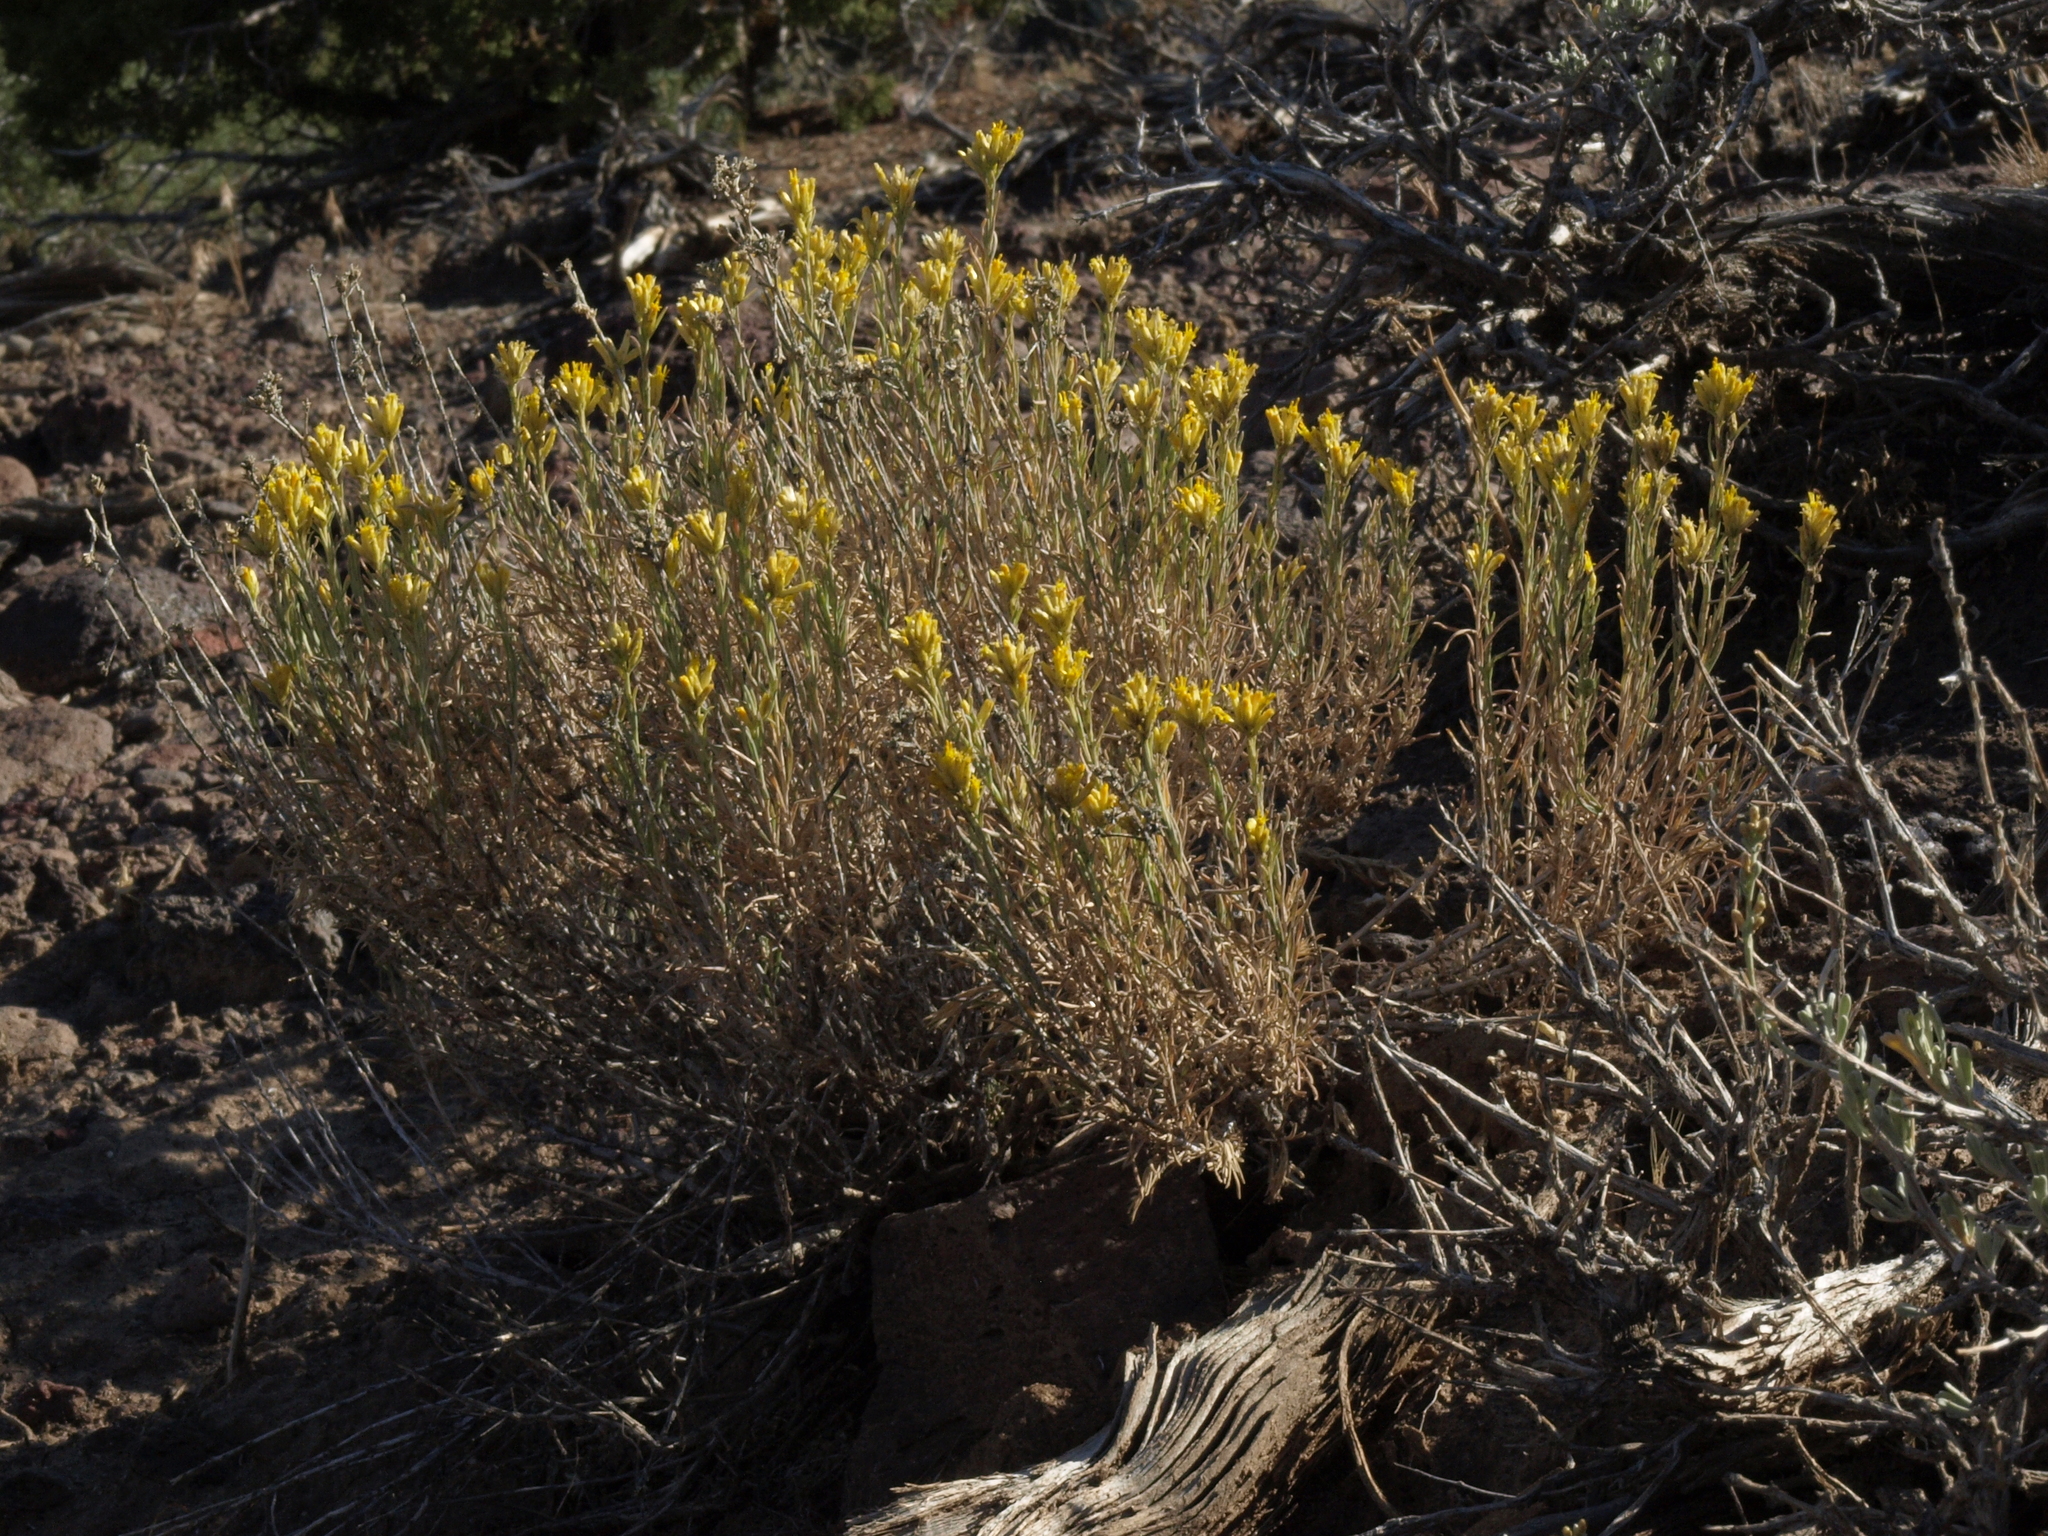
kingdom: Plantae
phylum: Tracheophyta
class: Magnoliopsida
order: Asterales
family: Asteraceae
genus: Chrysothamnus
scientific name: Chrysothamnus viscidiflorus
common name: Yellow rabbitbrush
